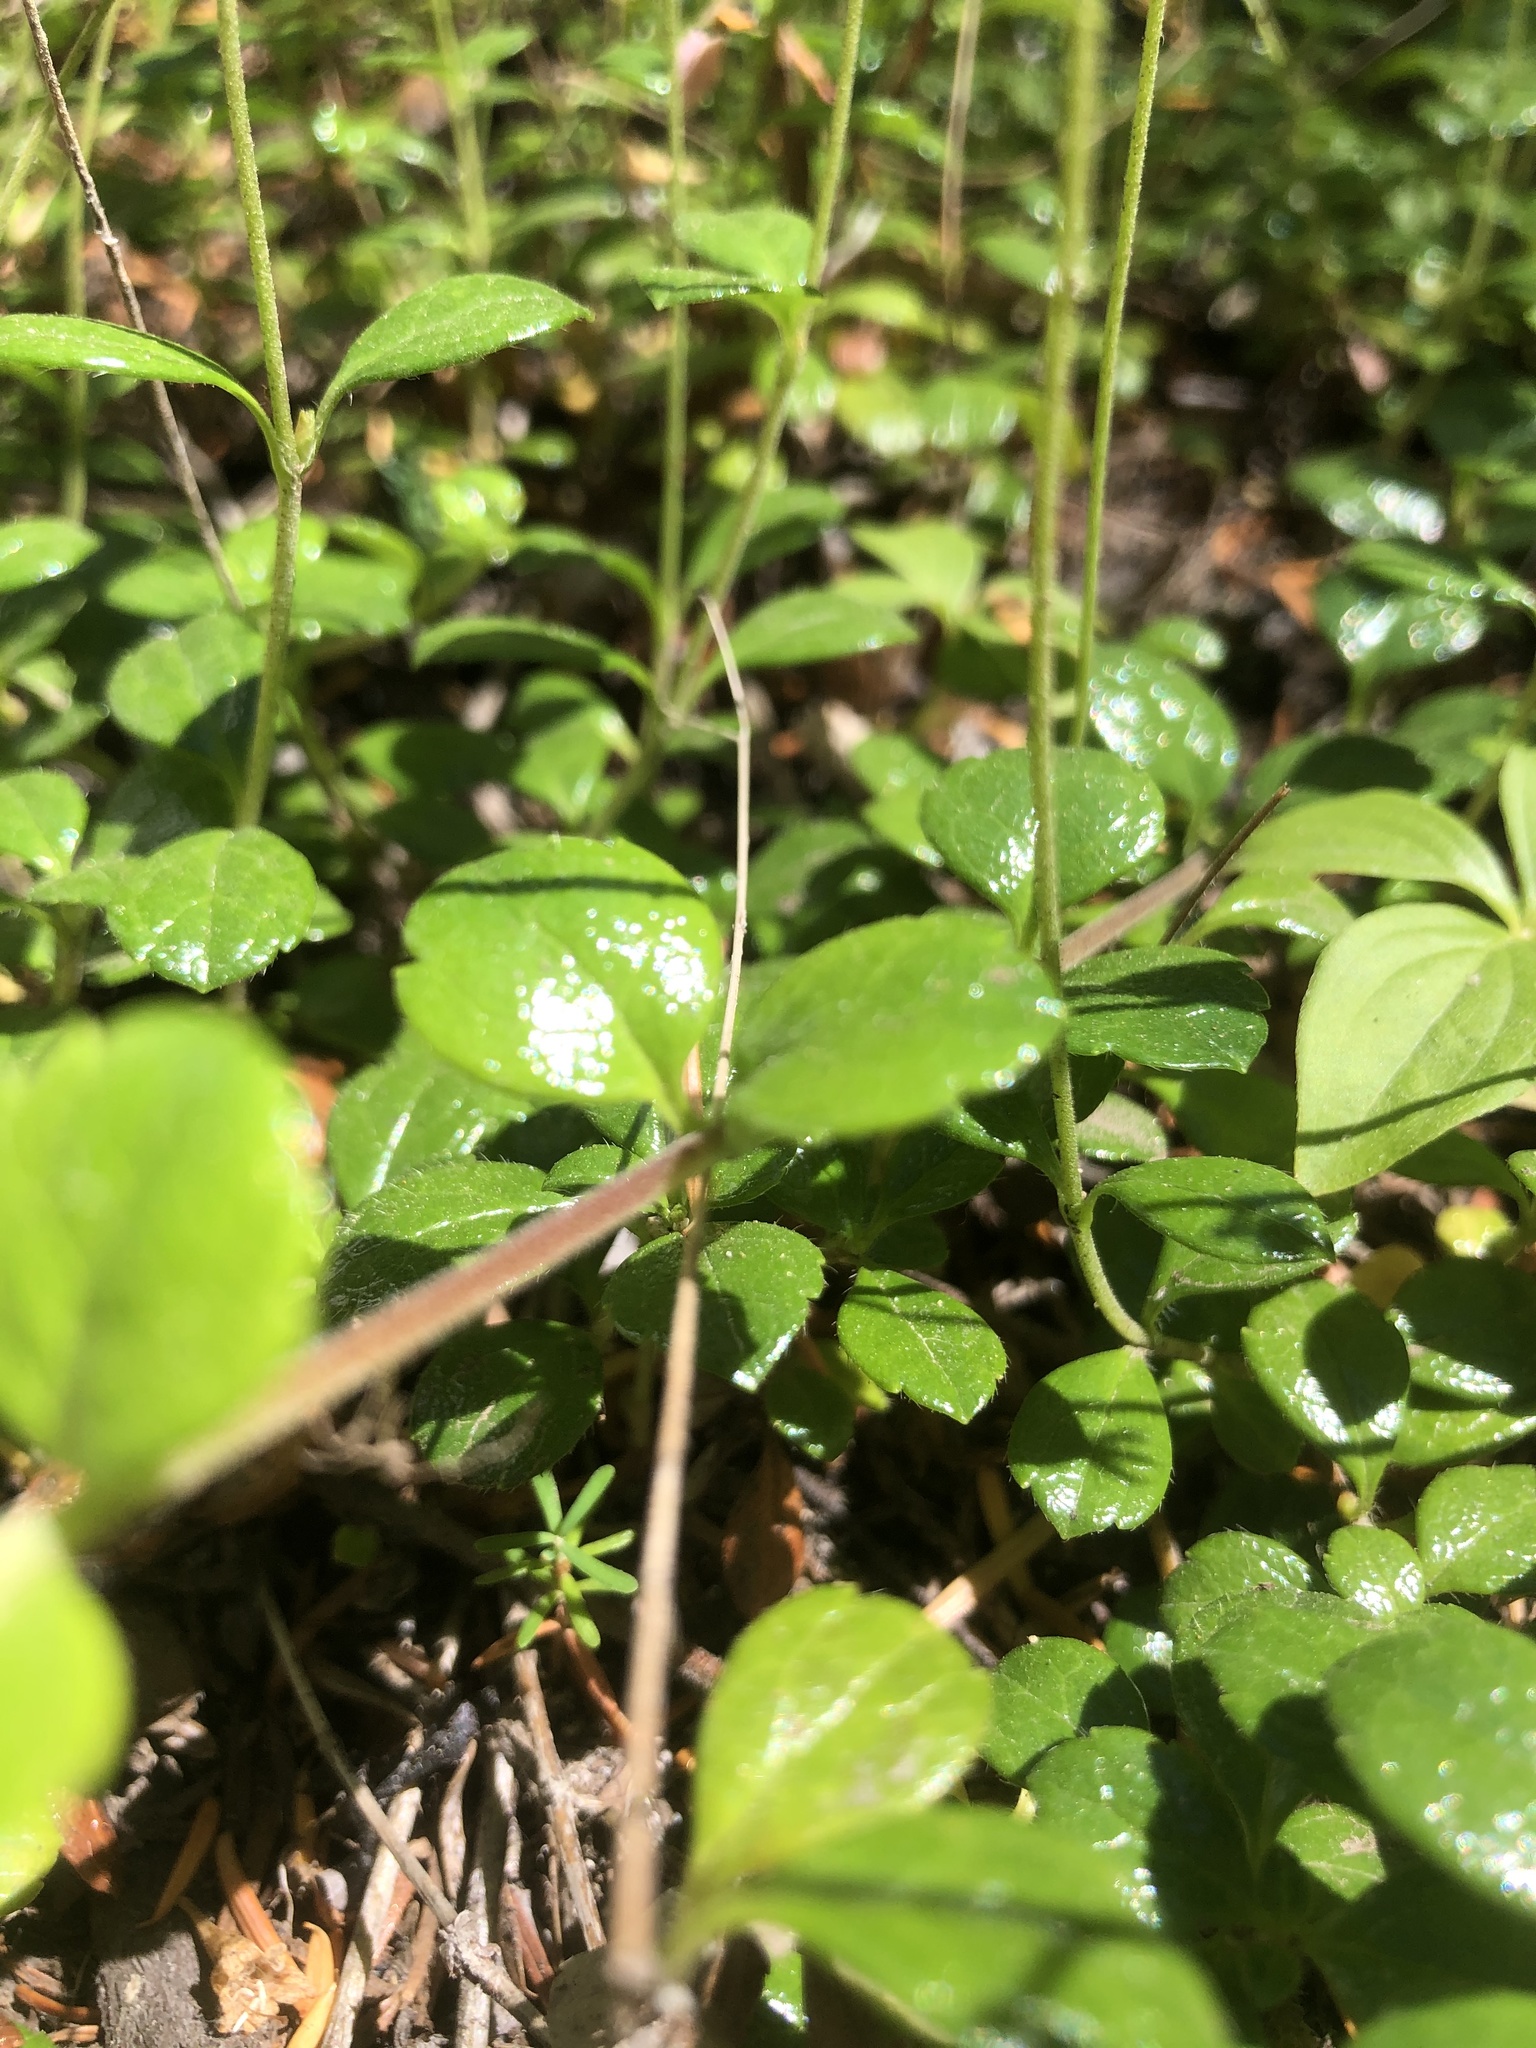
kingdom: Plantae
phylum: Tracheophyta
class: Magnoliopsida
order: Dipsacales
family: Caprifoliaceae
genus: Linnaea
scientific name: Linnaea borealis
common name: Twinflower
